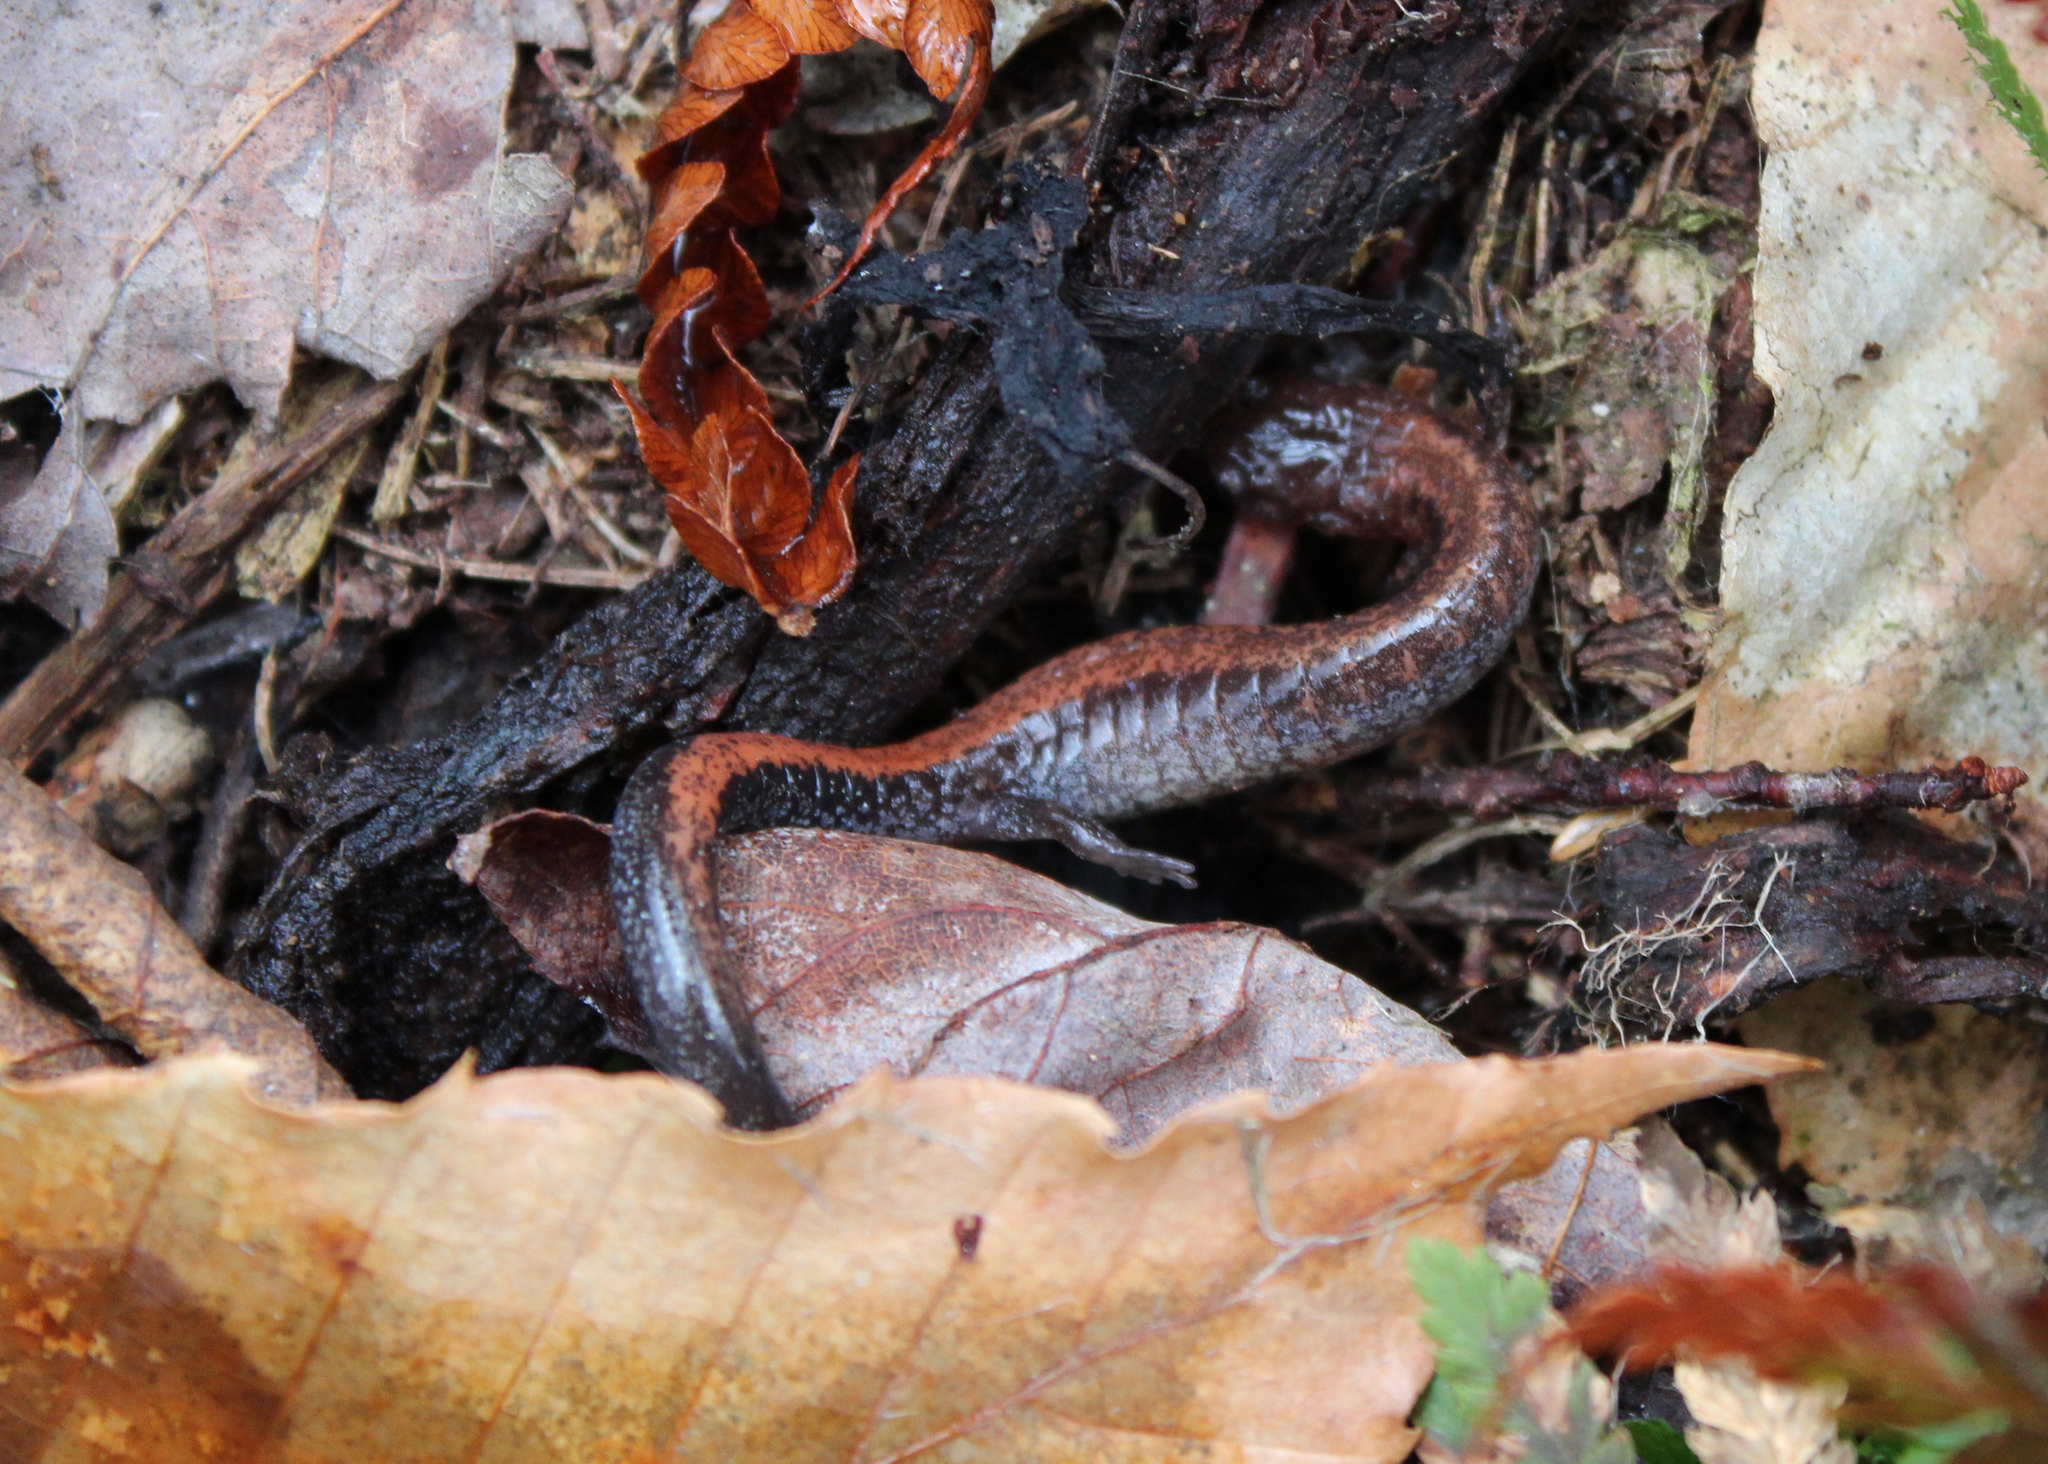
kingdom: Animalia
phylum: Chordata
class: Amphibia
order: Caudata
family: Plethodontidae
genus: Plethodon
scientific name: Plethodon cinereus
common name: Redback salamander
